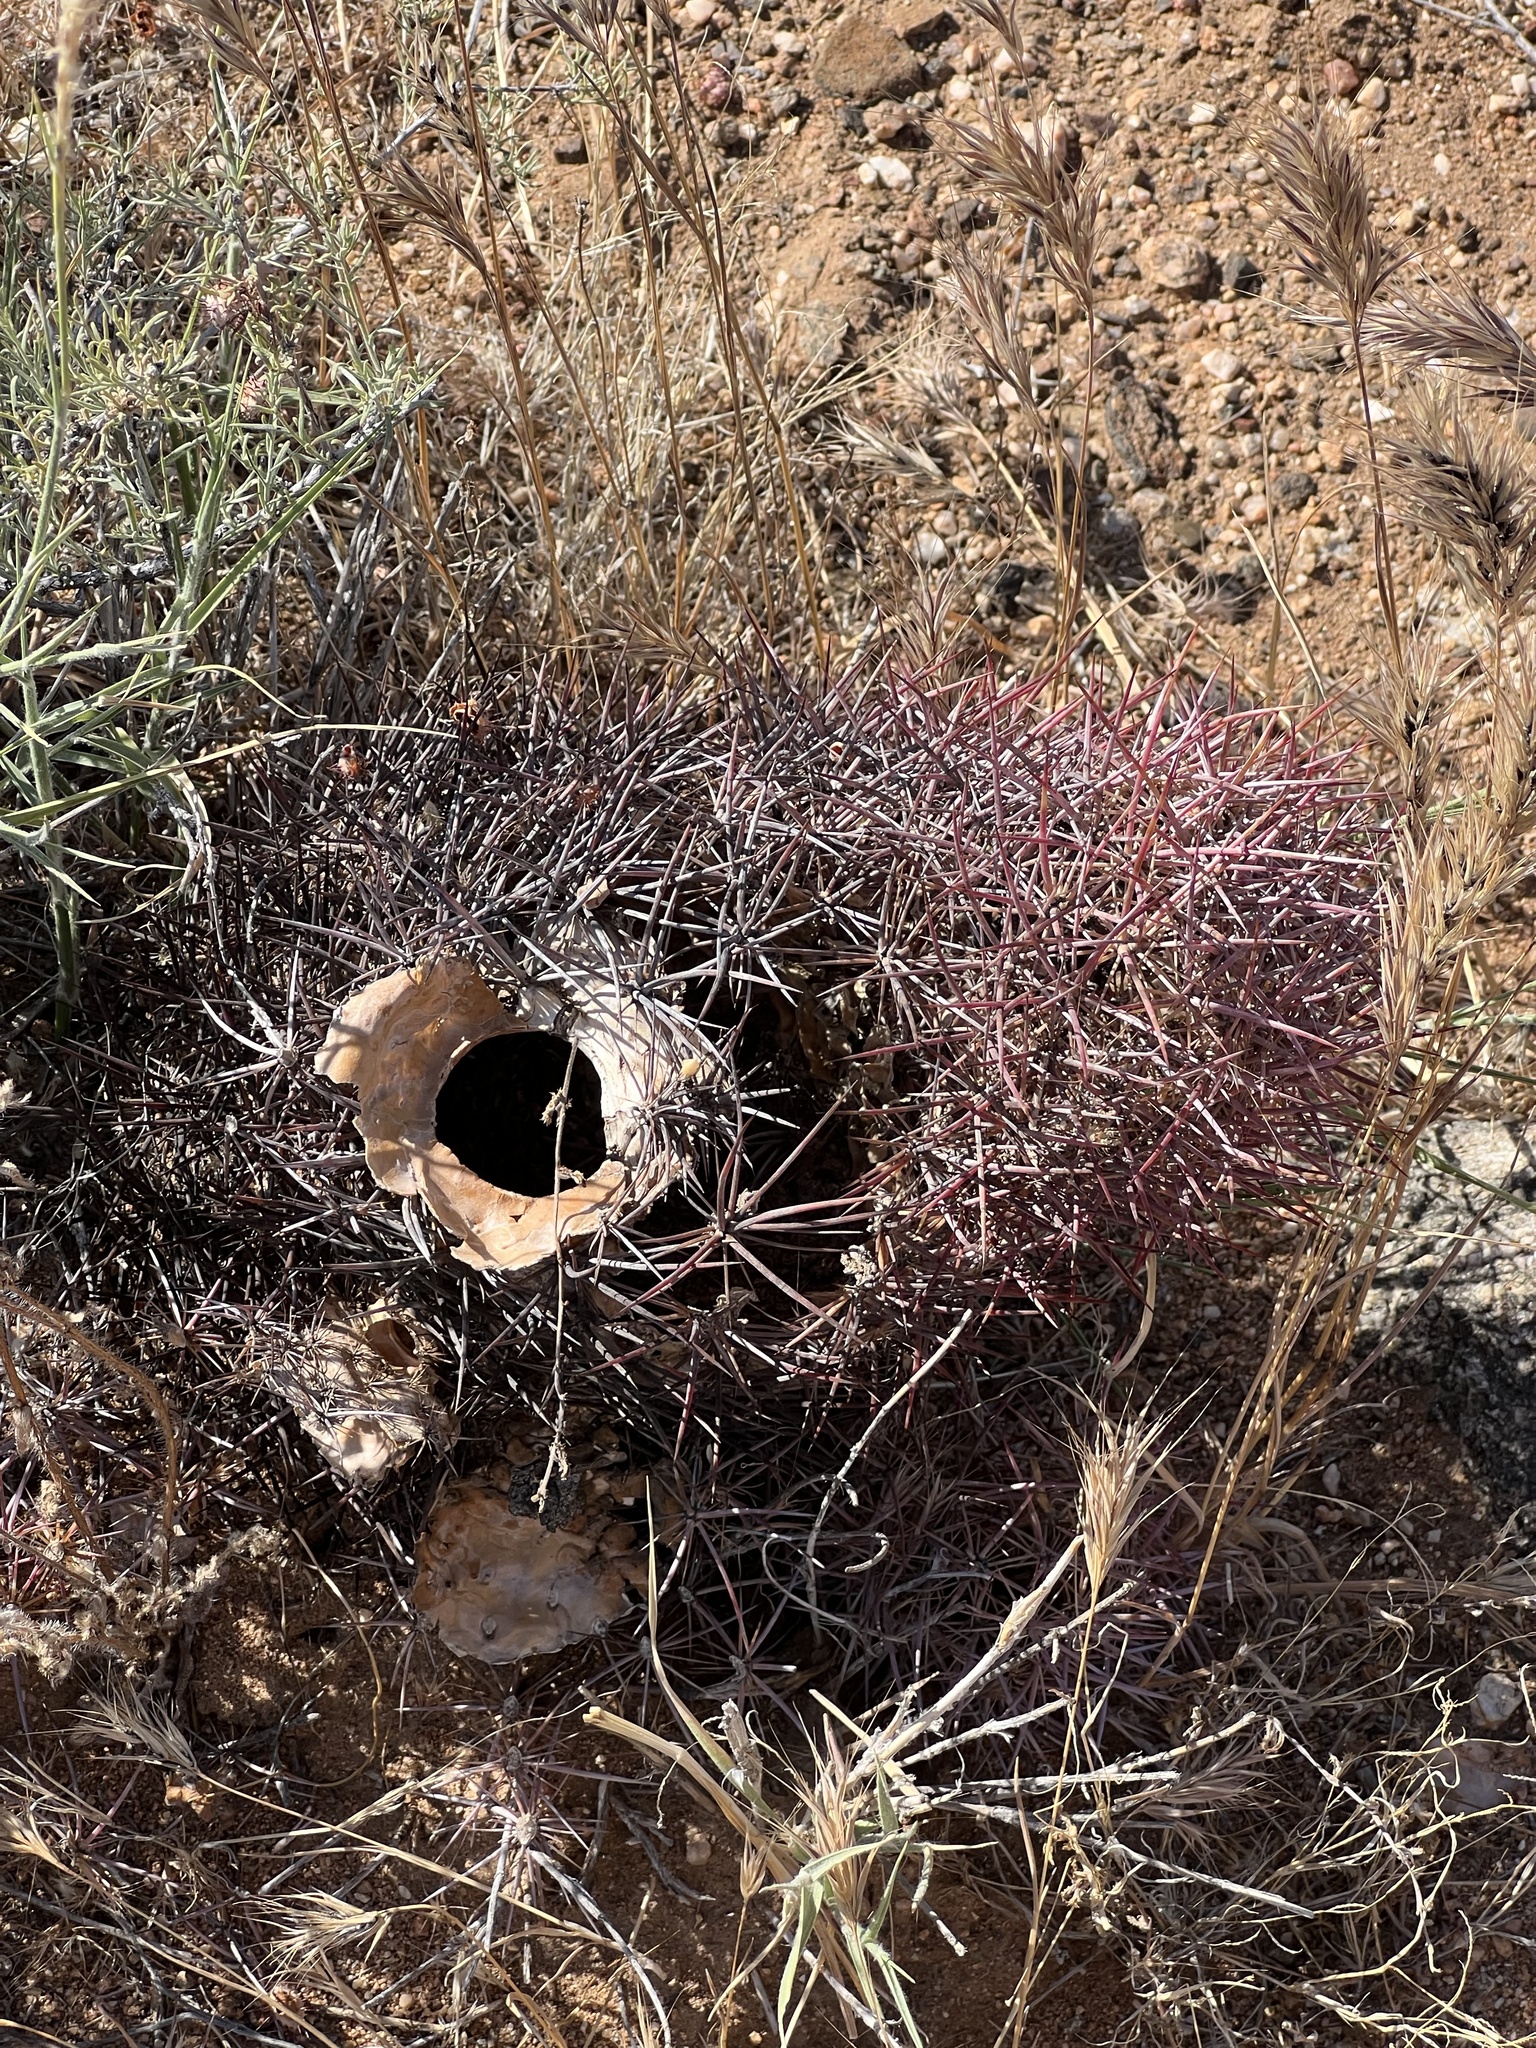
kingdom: Plantae
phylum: Tracheophyta
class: Magnoliopsida
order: Caryophyllales
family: Cactaceae
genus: Sclerocactus
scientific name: Sclerocactus johnsonii
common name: Eight-spine fishhook cactus
